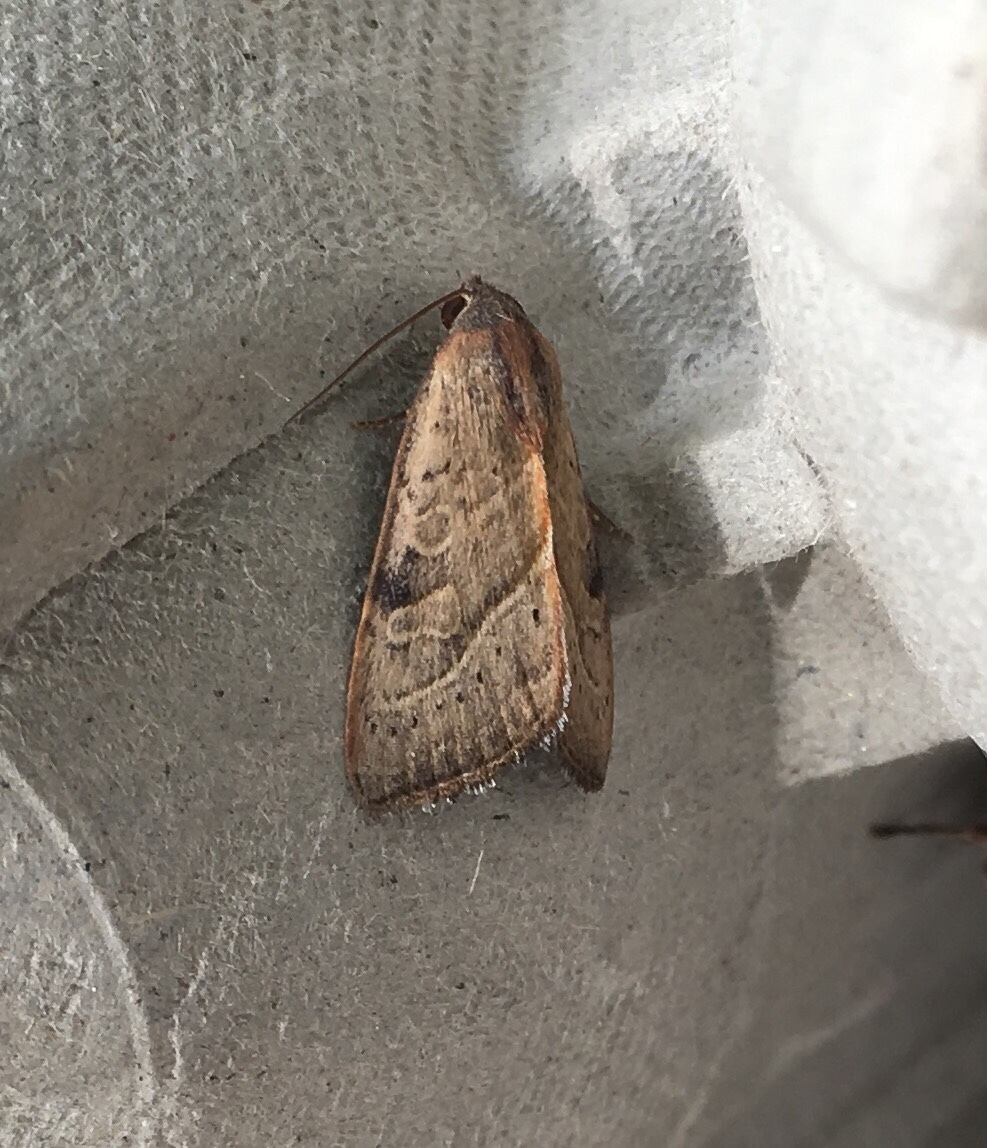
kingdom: Animalia
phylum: Arthropoda
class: Insecta
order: Lepidoptera
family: Noctuidae
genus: Galgula
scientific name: Galgula partita
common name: Wedgeling
